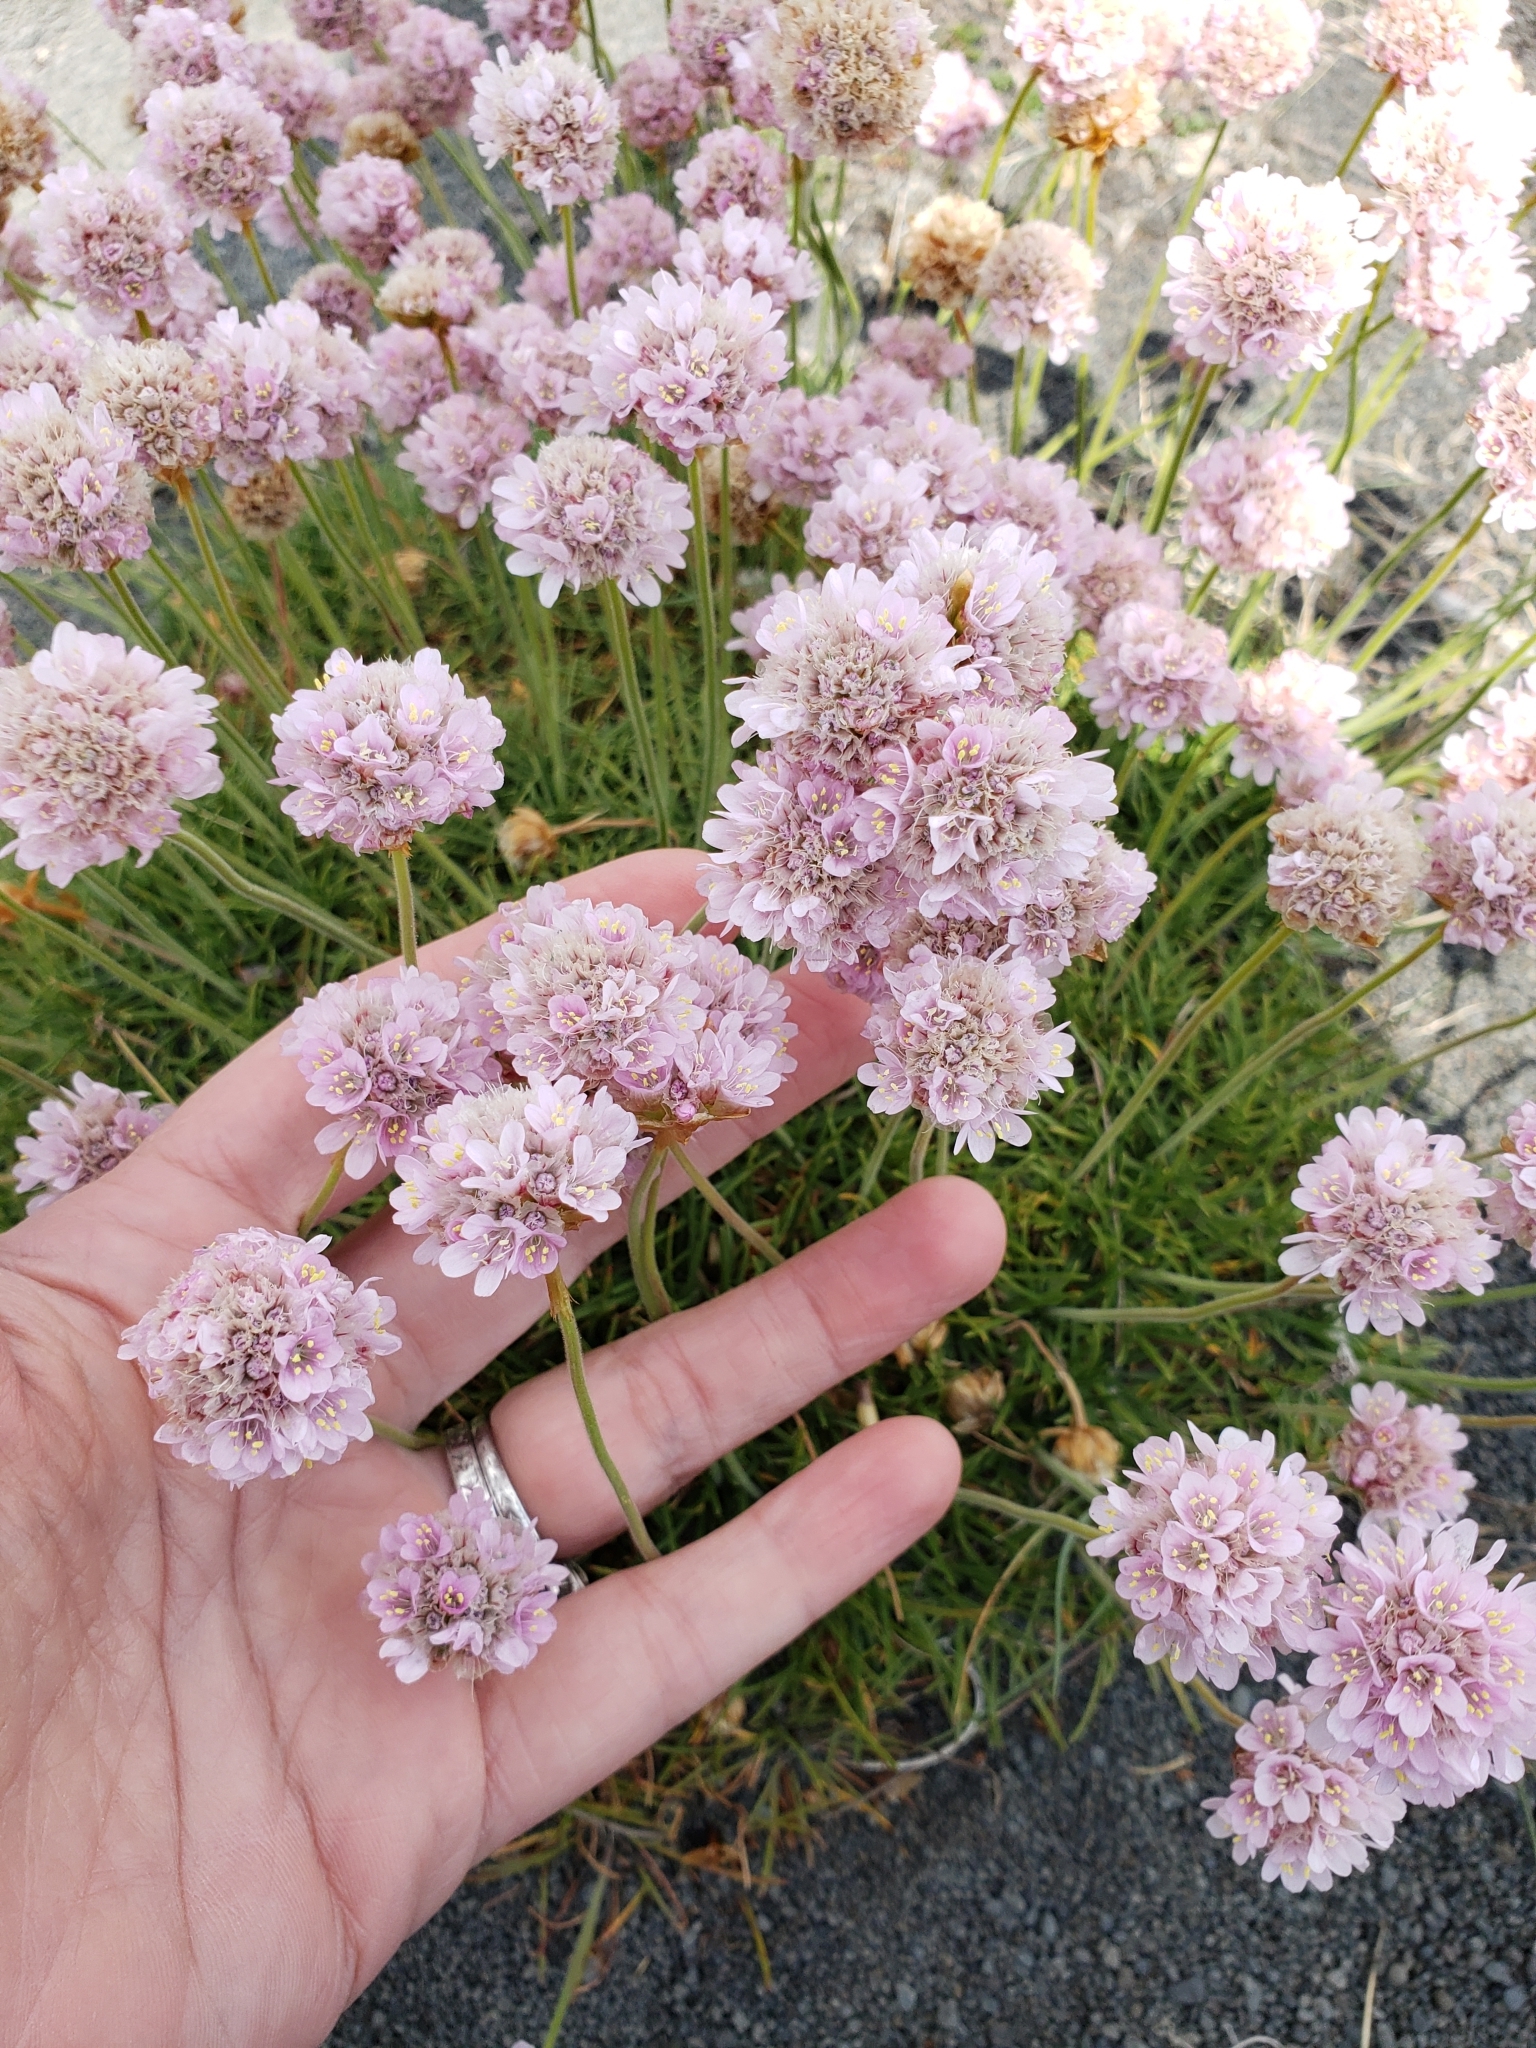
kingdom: Plantae
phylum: Tracheophyta
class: Magnoliopsida
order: Caryophyllales
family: Plumbaginaceae
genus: Armeria
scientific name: Armeria maritima
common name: Thrift
